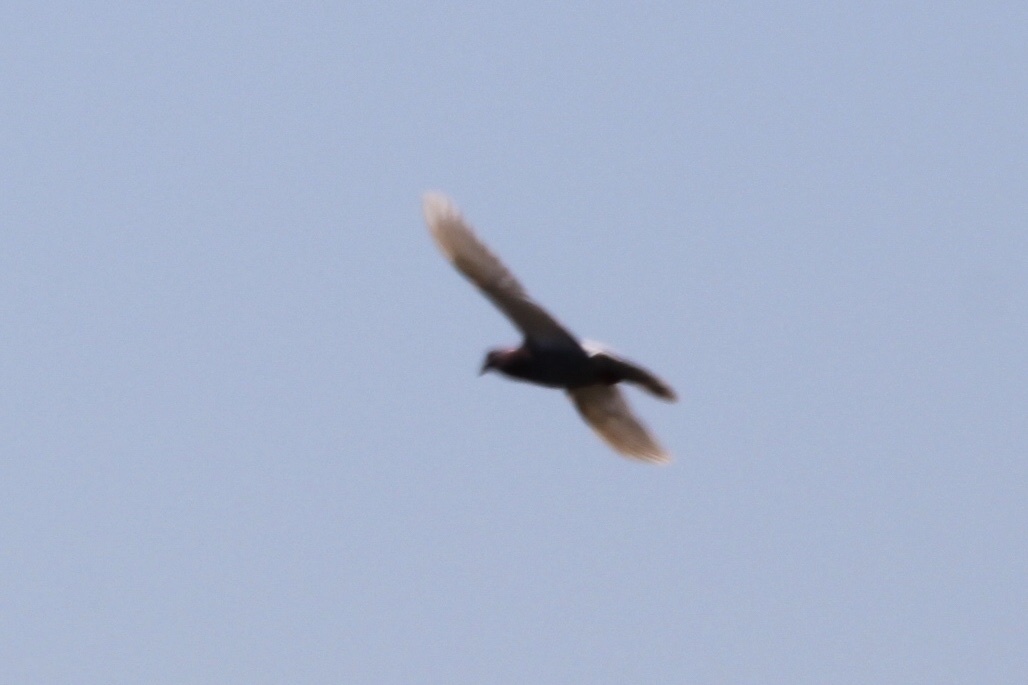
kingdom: Animalia
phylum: Chordata
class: Aves
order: Columbiformes
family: Columbidae
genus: Columba
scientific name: Columba livia
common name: Rock pigeon
